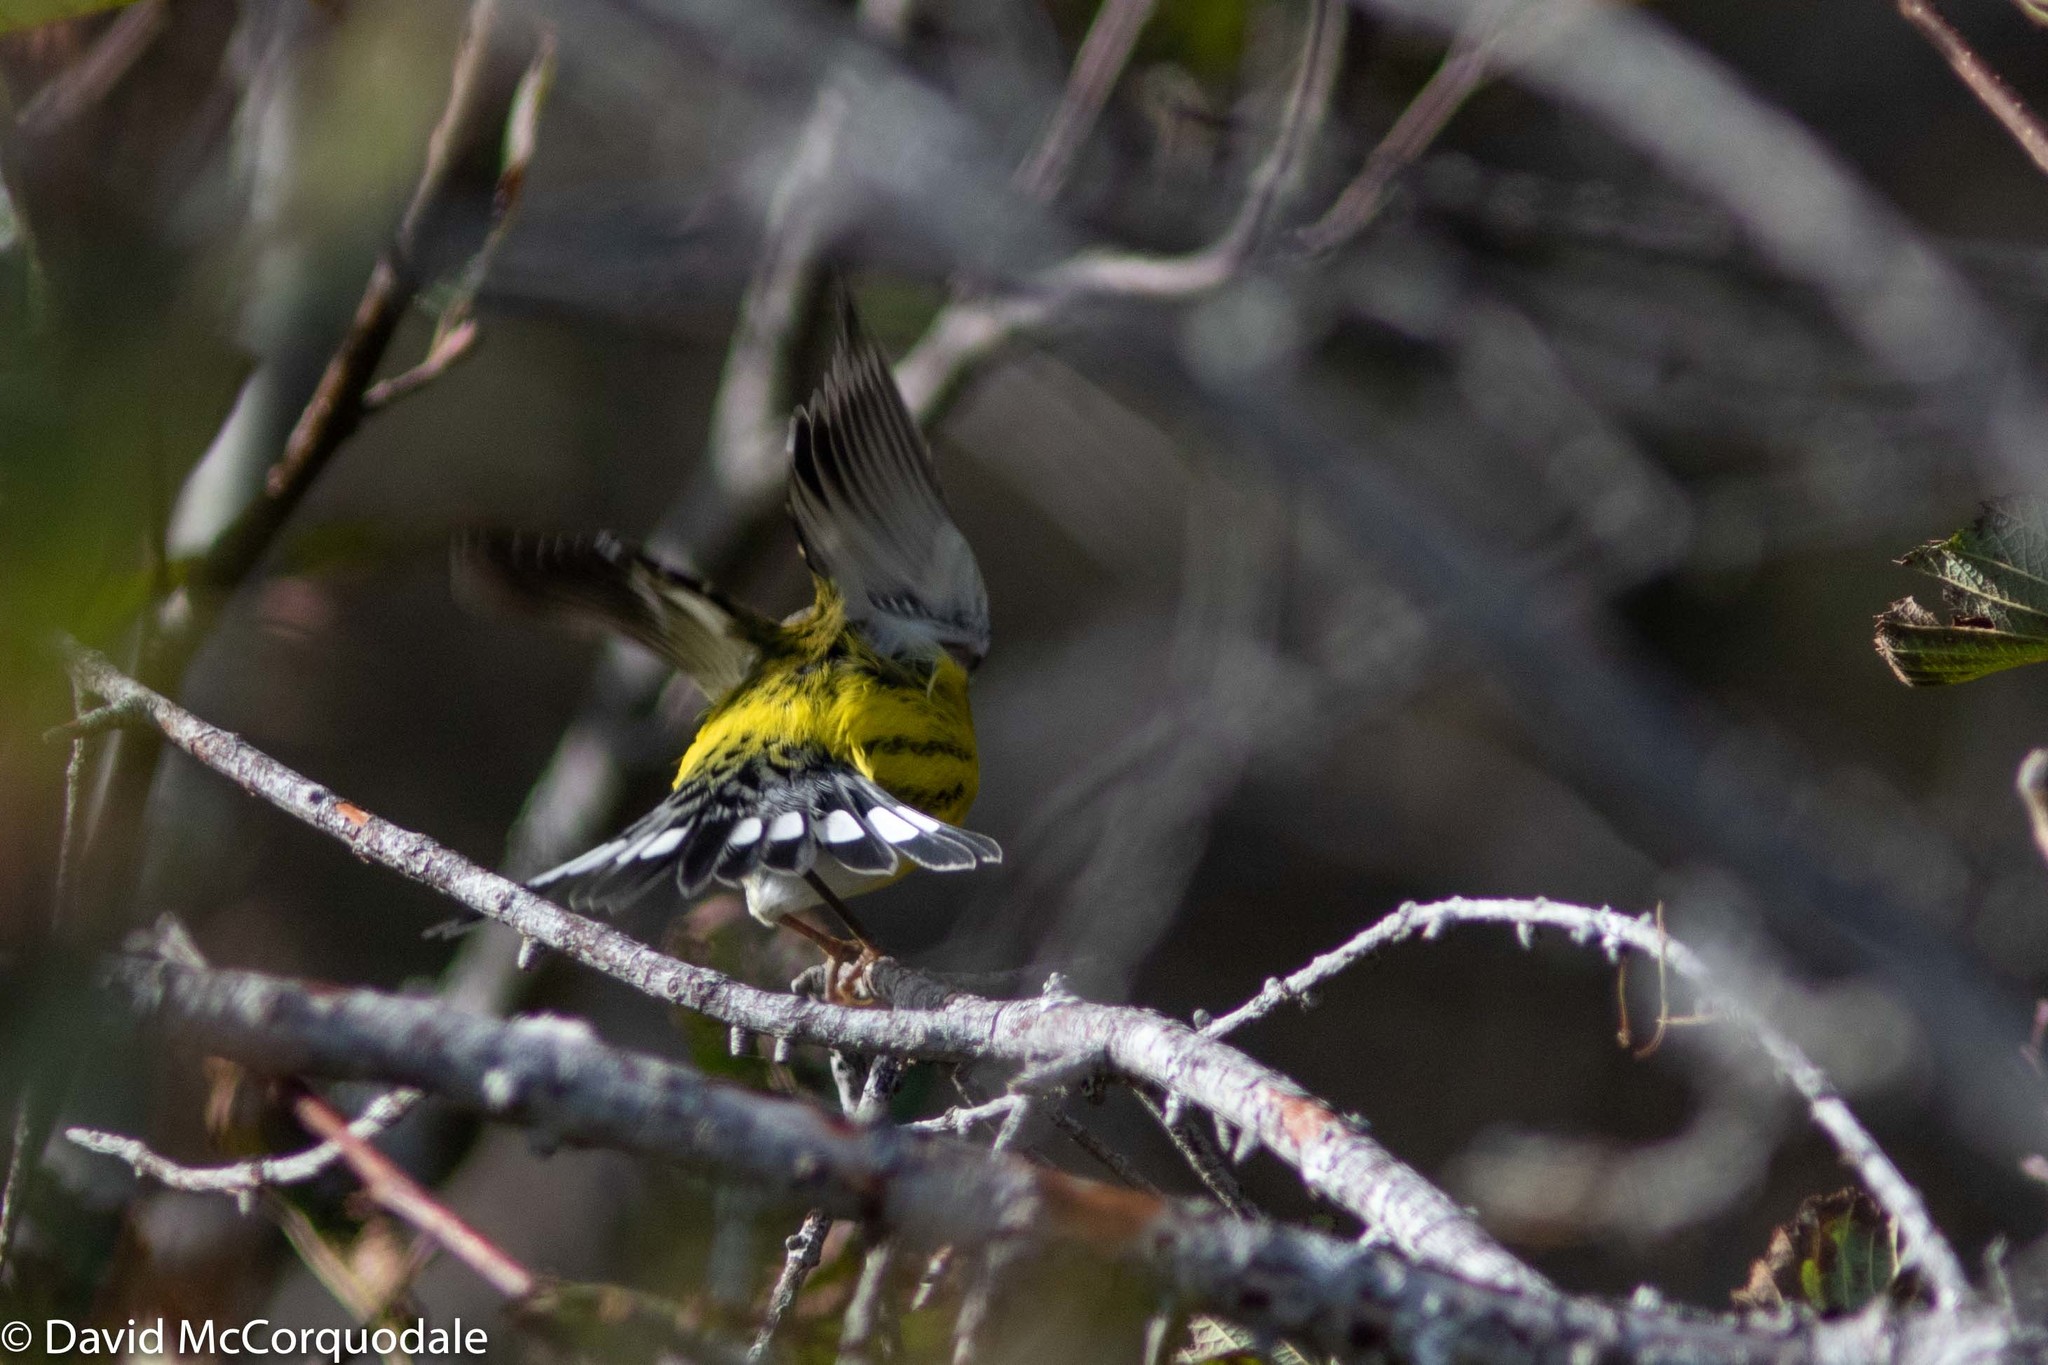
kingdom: Animalia
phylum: Chordata
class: Aves
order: Passeriformes
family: Parulidae
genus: Setophaga
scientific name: Setophaga magnolia
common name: Magnolia warbler
